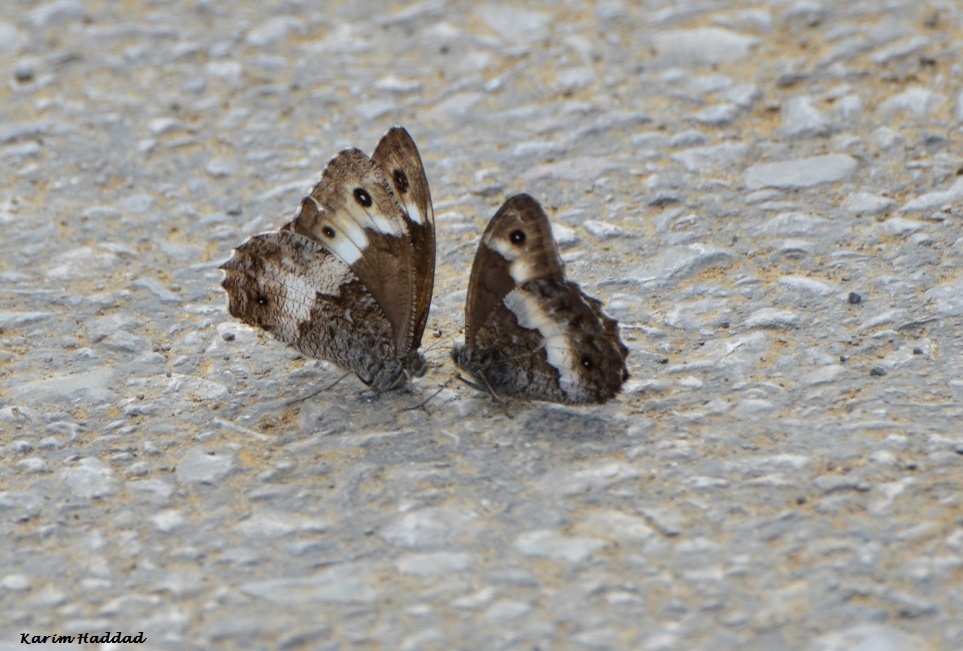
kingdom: Animalia
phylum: Arthropoda
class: Insecta
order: Lepidoptera
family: Nymphalidae
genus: Hipparchia
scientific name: Hipparchia ellena
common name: Algerian grayling
